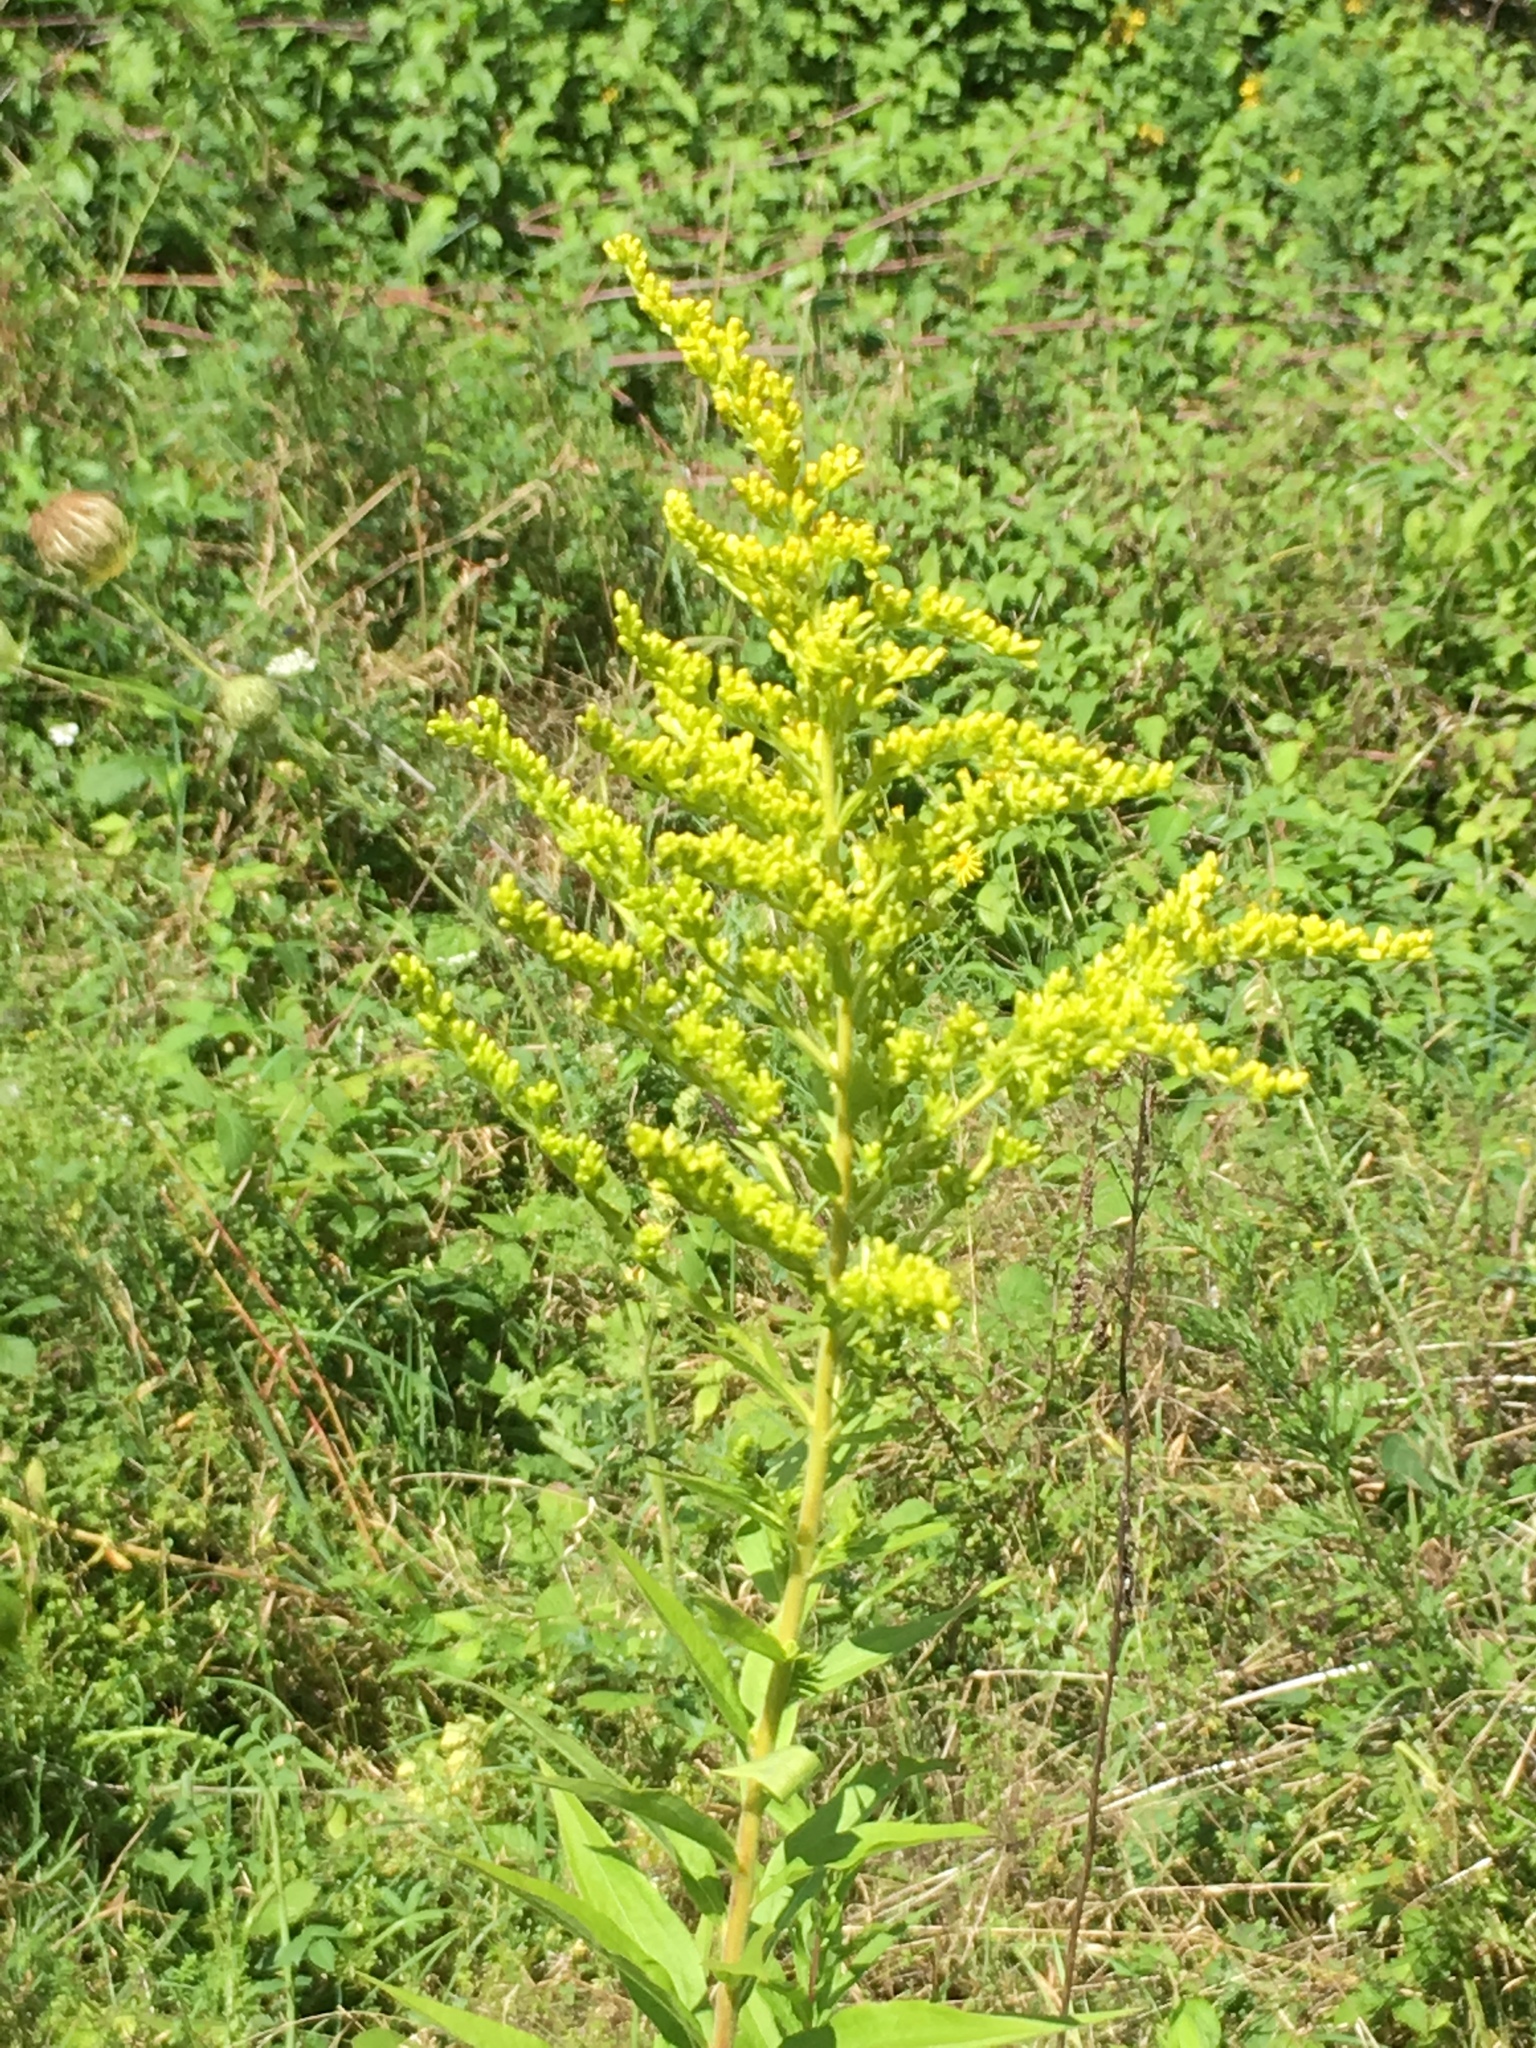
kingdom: Plantae
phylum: Tracheophyta
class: Magnoliopsida
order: Asterales
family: Asteraceae
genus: Solidago
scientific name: Solidago canadensis
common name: Canada goldenrod
